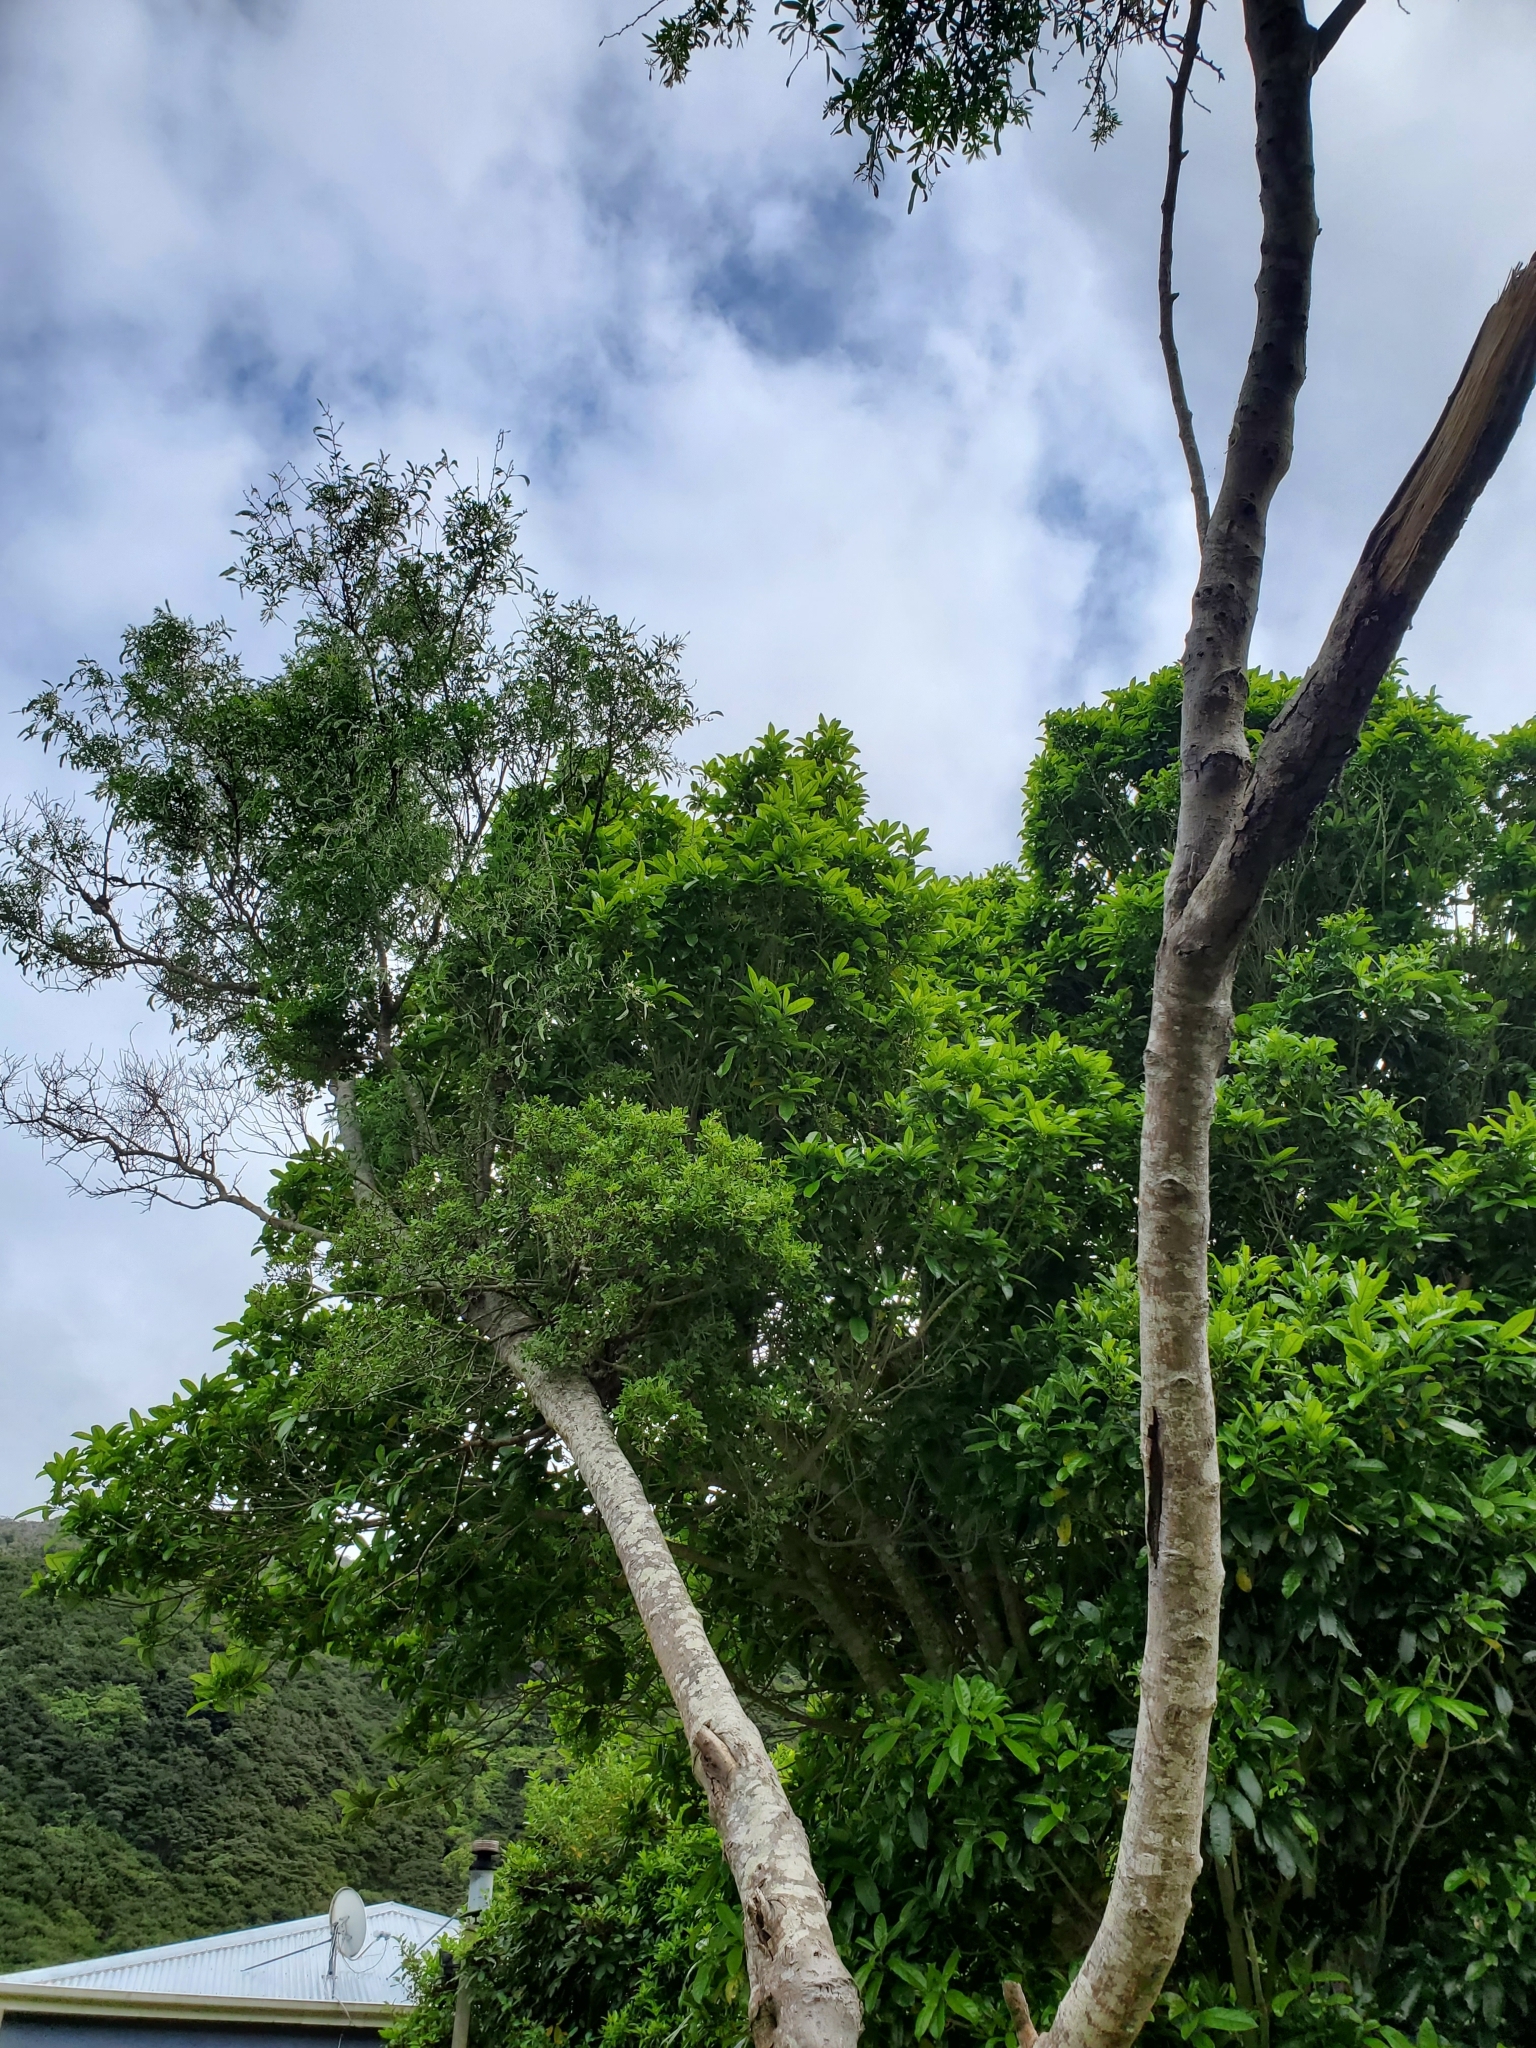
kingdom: Plantae
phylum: Tracheophyta
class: Magnoliopsida
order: Santalales
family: Loranthaceae
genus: Tupeia
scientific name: Tupeia antarctica
